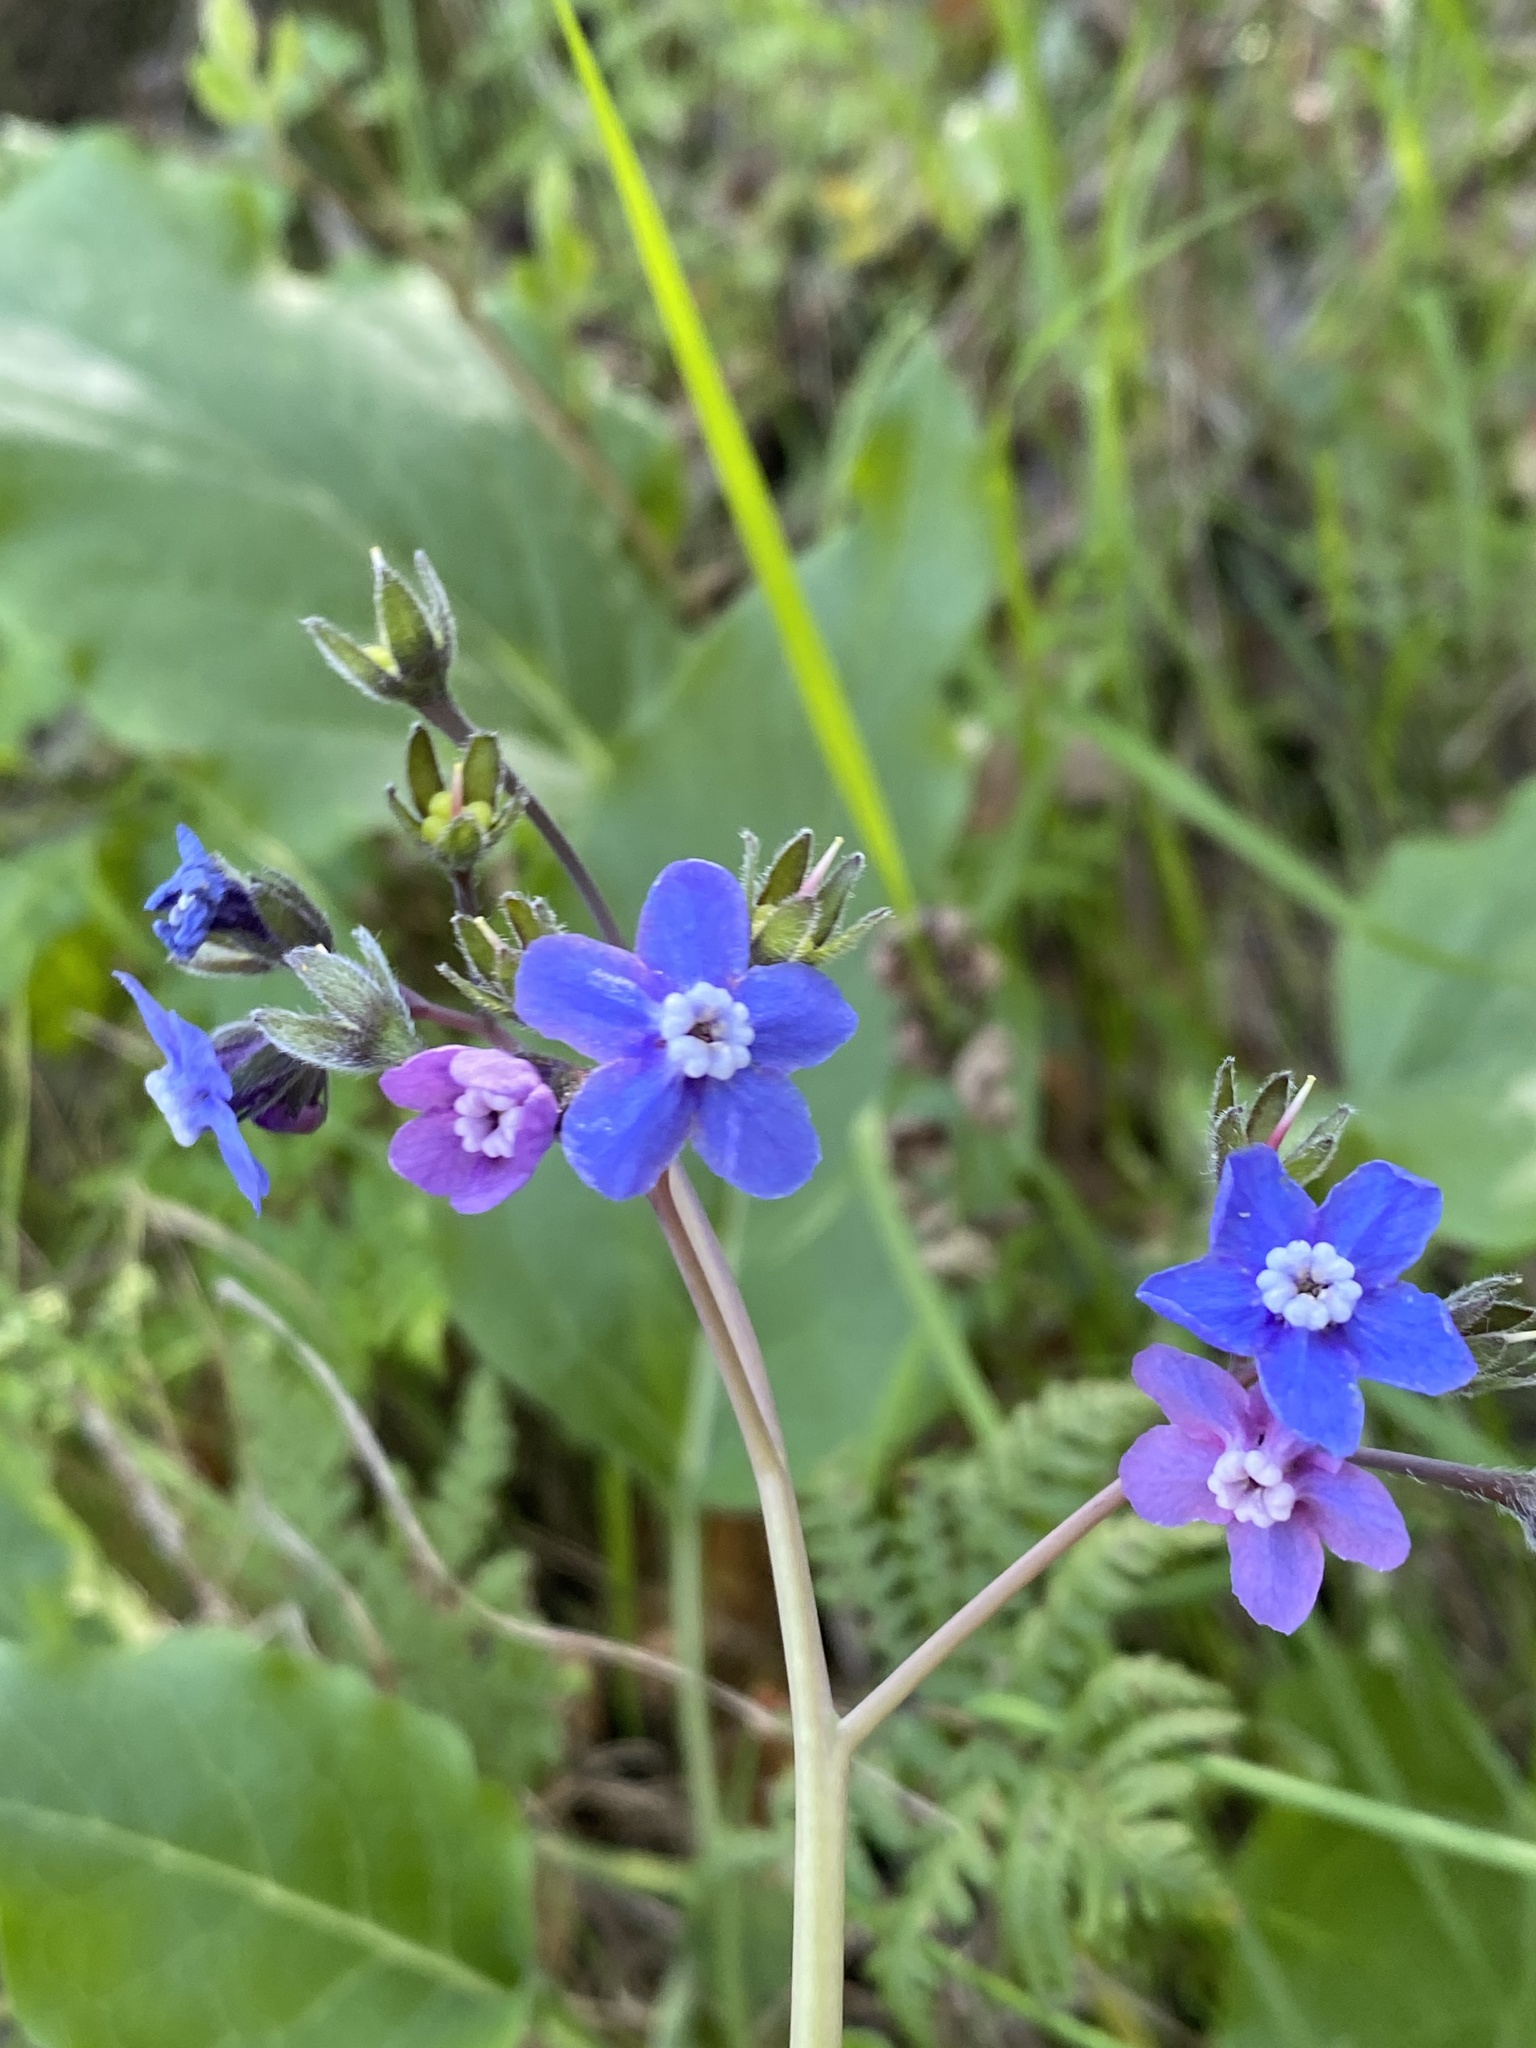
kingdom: Plantae
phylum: Tracheophyta
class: Magnoliopsida
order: Boraginales
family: Boraginaceae
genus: Adelinia
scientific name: Adelinia grande
